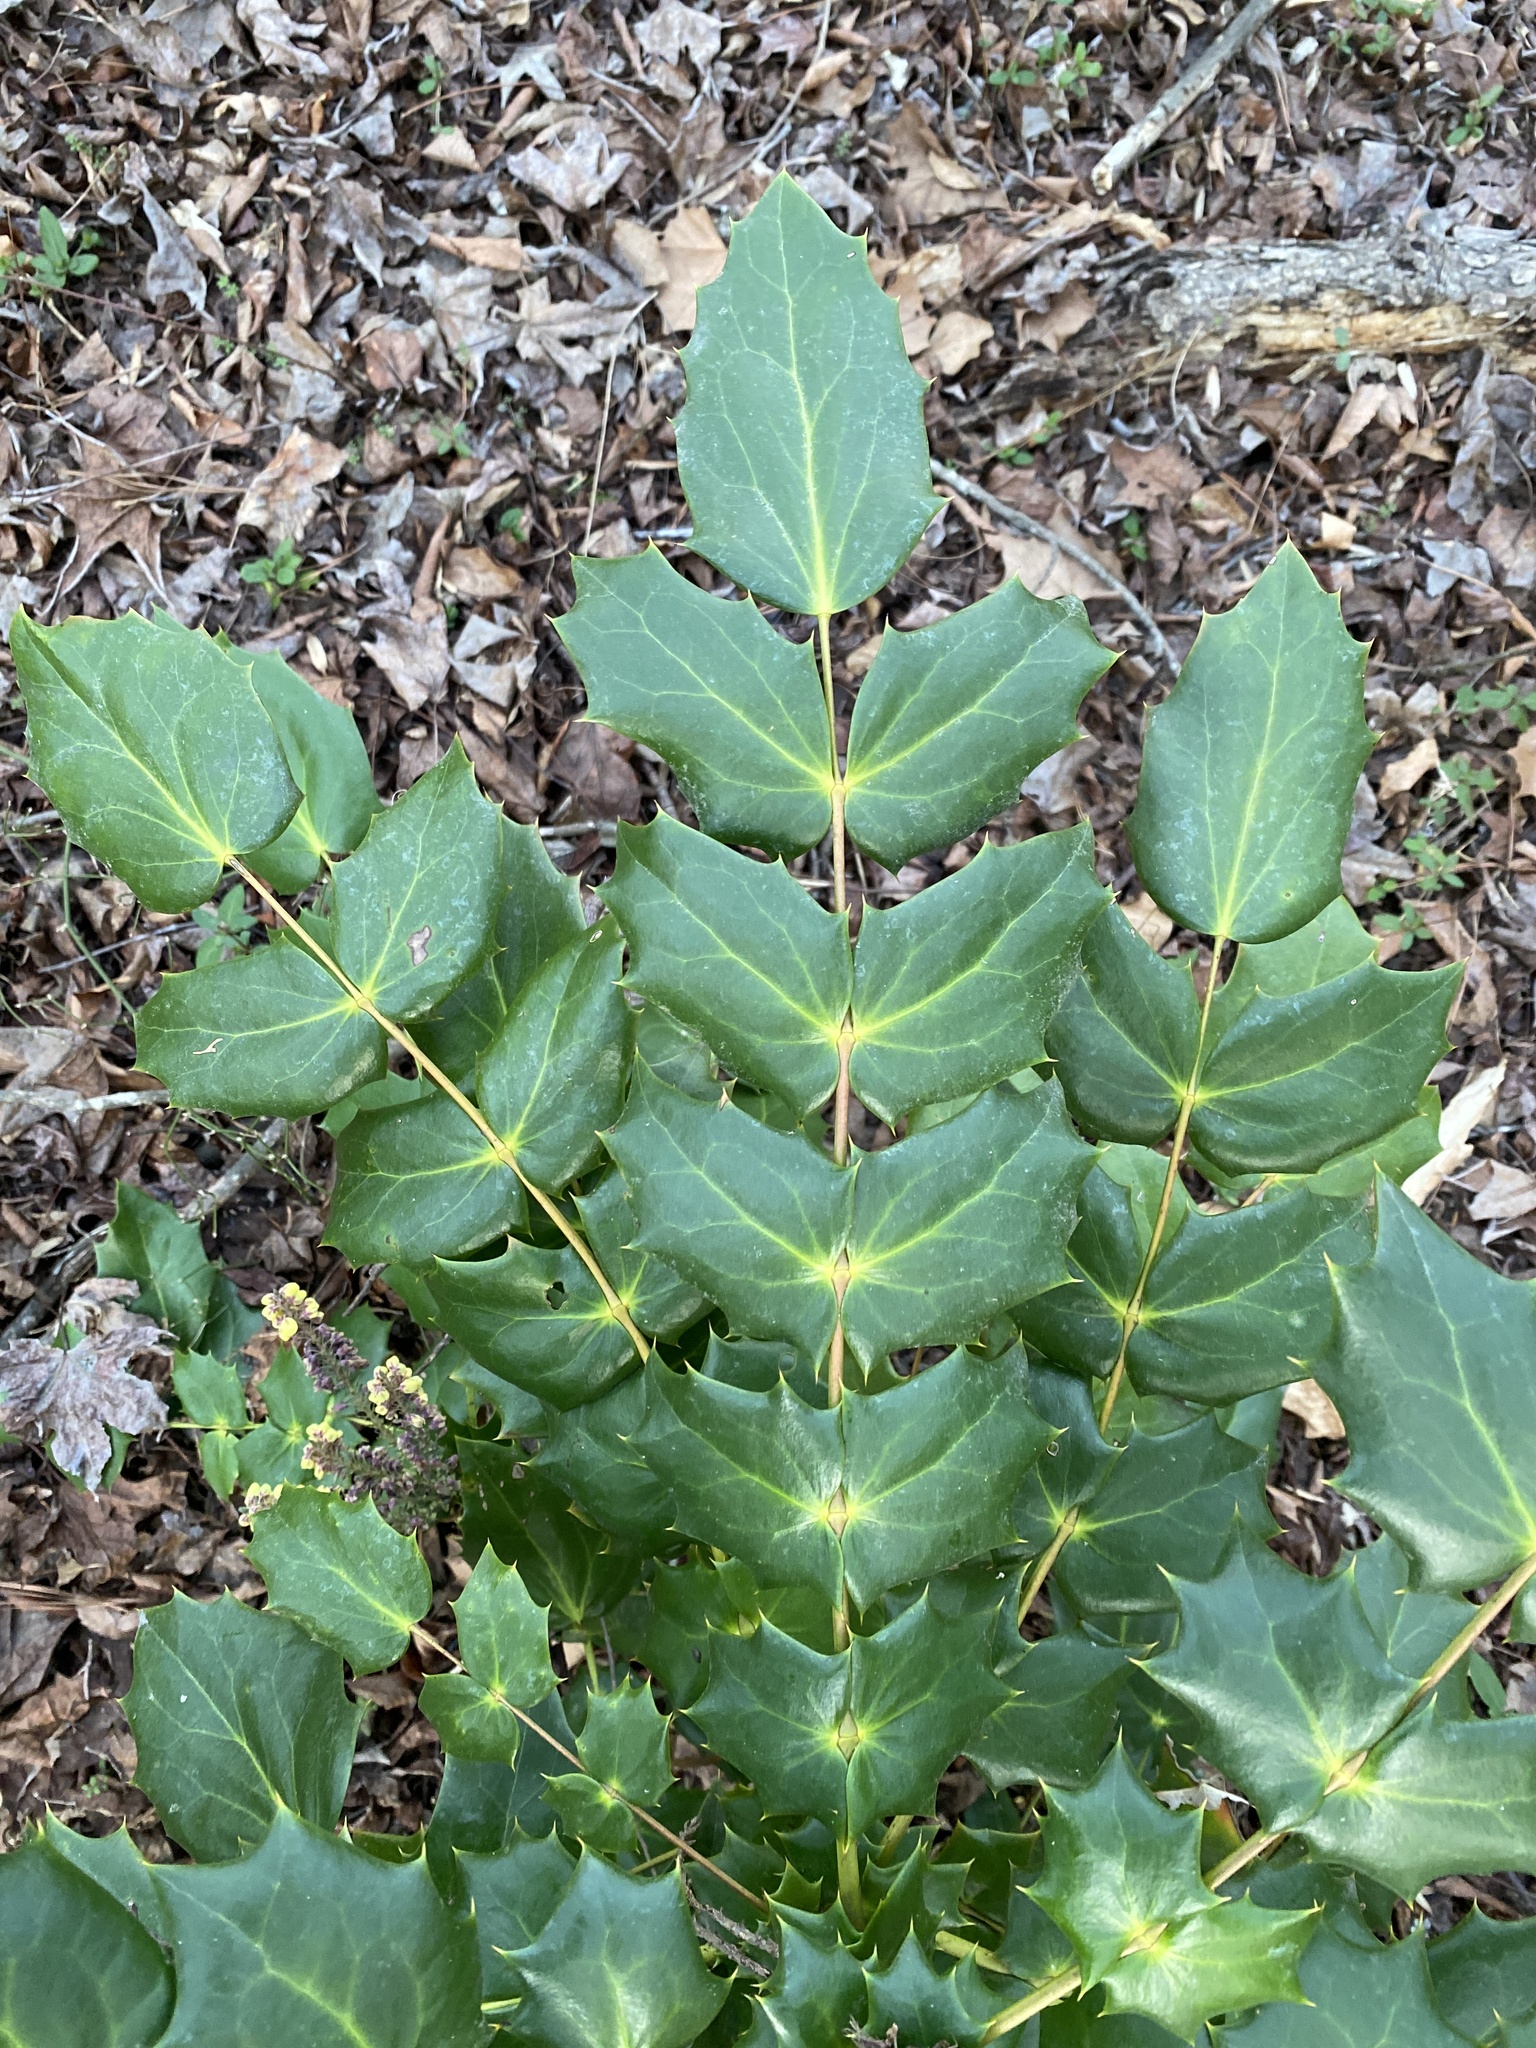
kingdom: Plantae
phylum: Tracheophyta
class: Magnoliopsida
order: Ranunculales
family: Berberidaceae
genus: Mahonia
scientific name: Mahonia bealei
